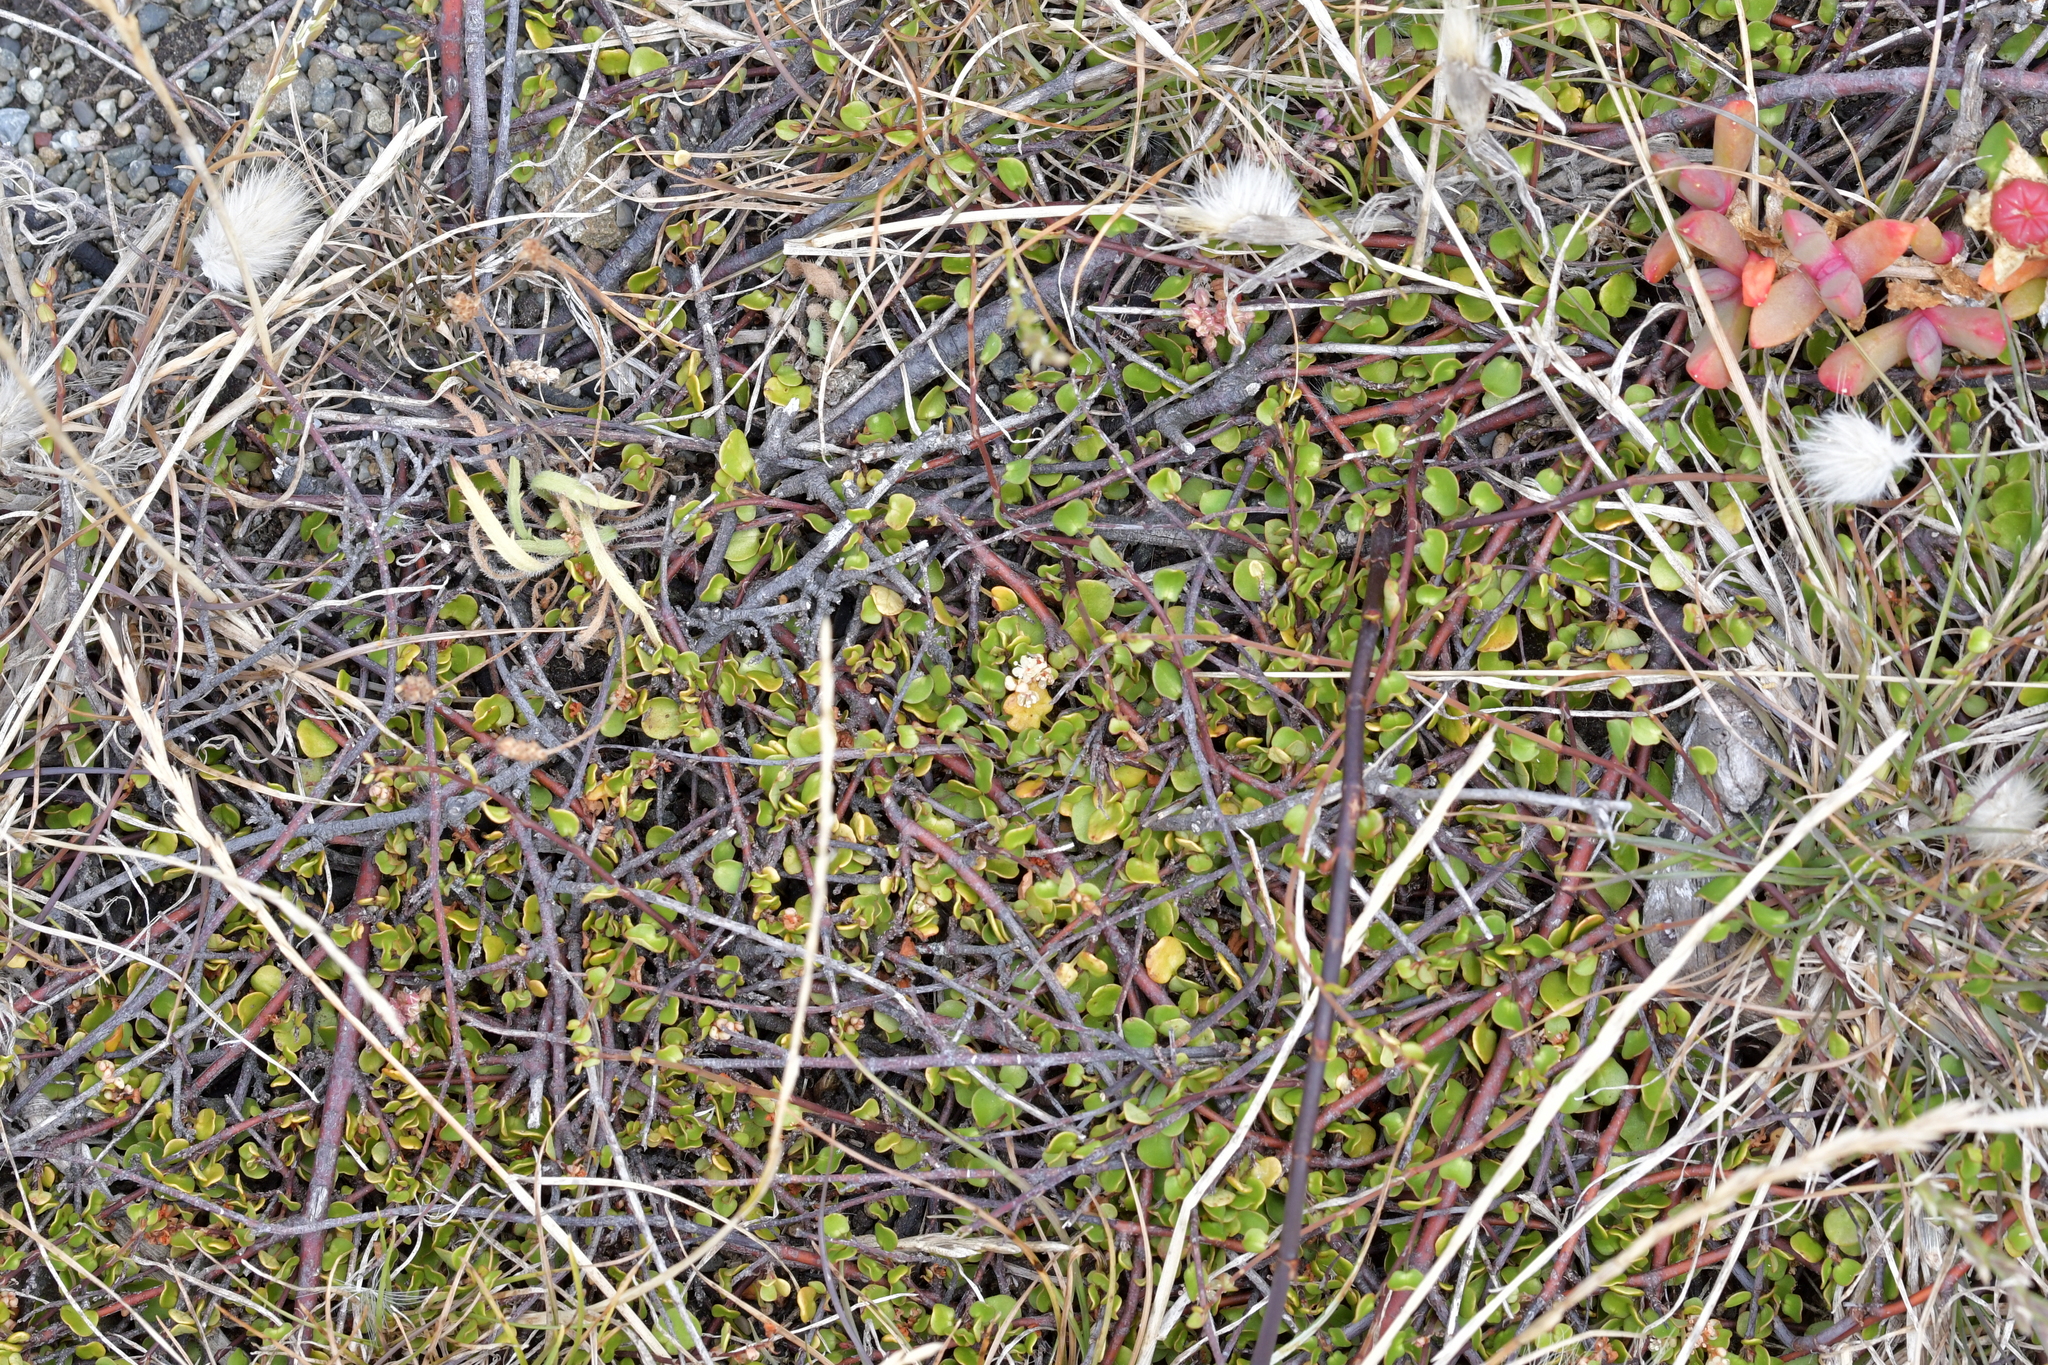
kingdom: Plantae
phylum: Tracheophyta
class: Magnoliopsida
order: Caryophyllales
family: Polygonaceae
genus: Muehlenbeckia
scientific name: Muehlenbeckia complexa
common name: Wireplant
